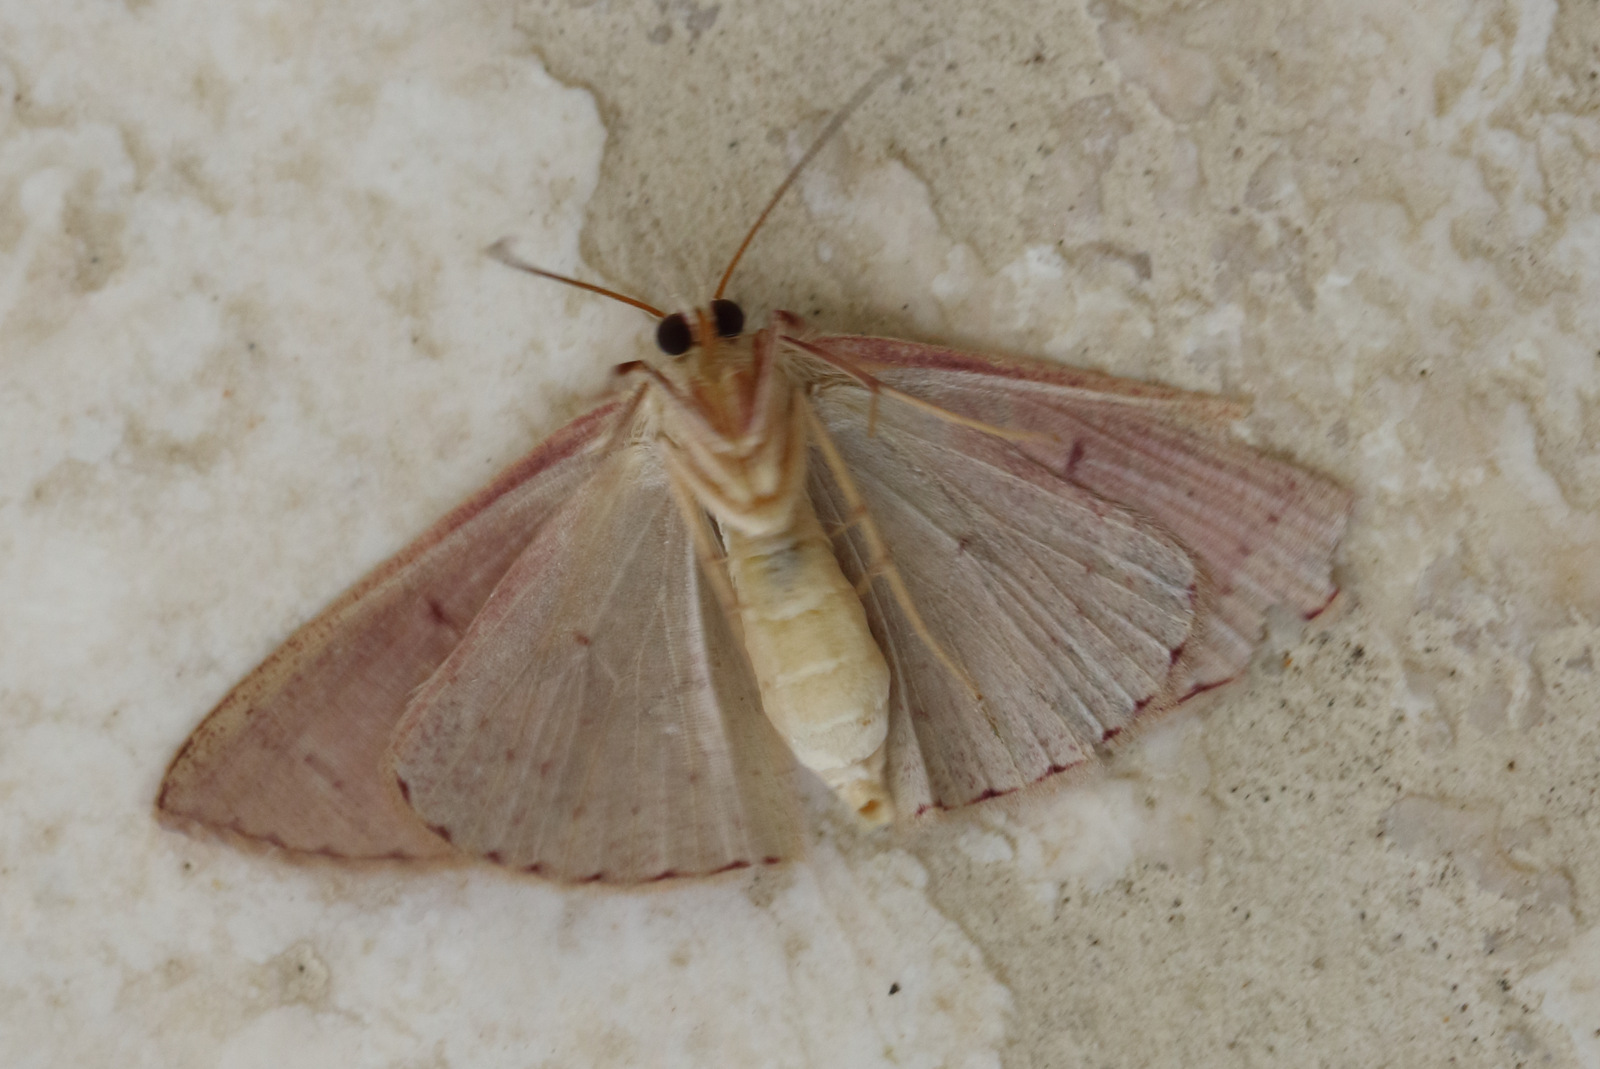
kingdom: Animalia
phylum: Arthropoda
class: Insecta
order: Lepidoptera
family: Geometridae
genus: Cyclophora
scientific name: Cyclophora obstataria
